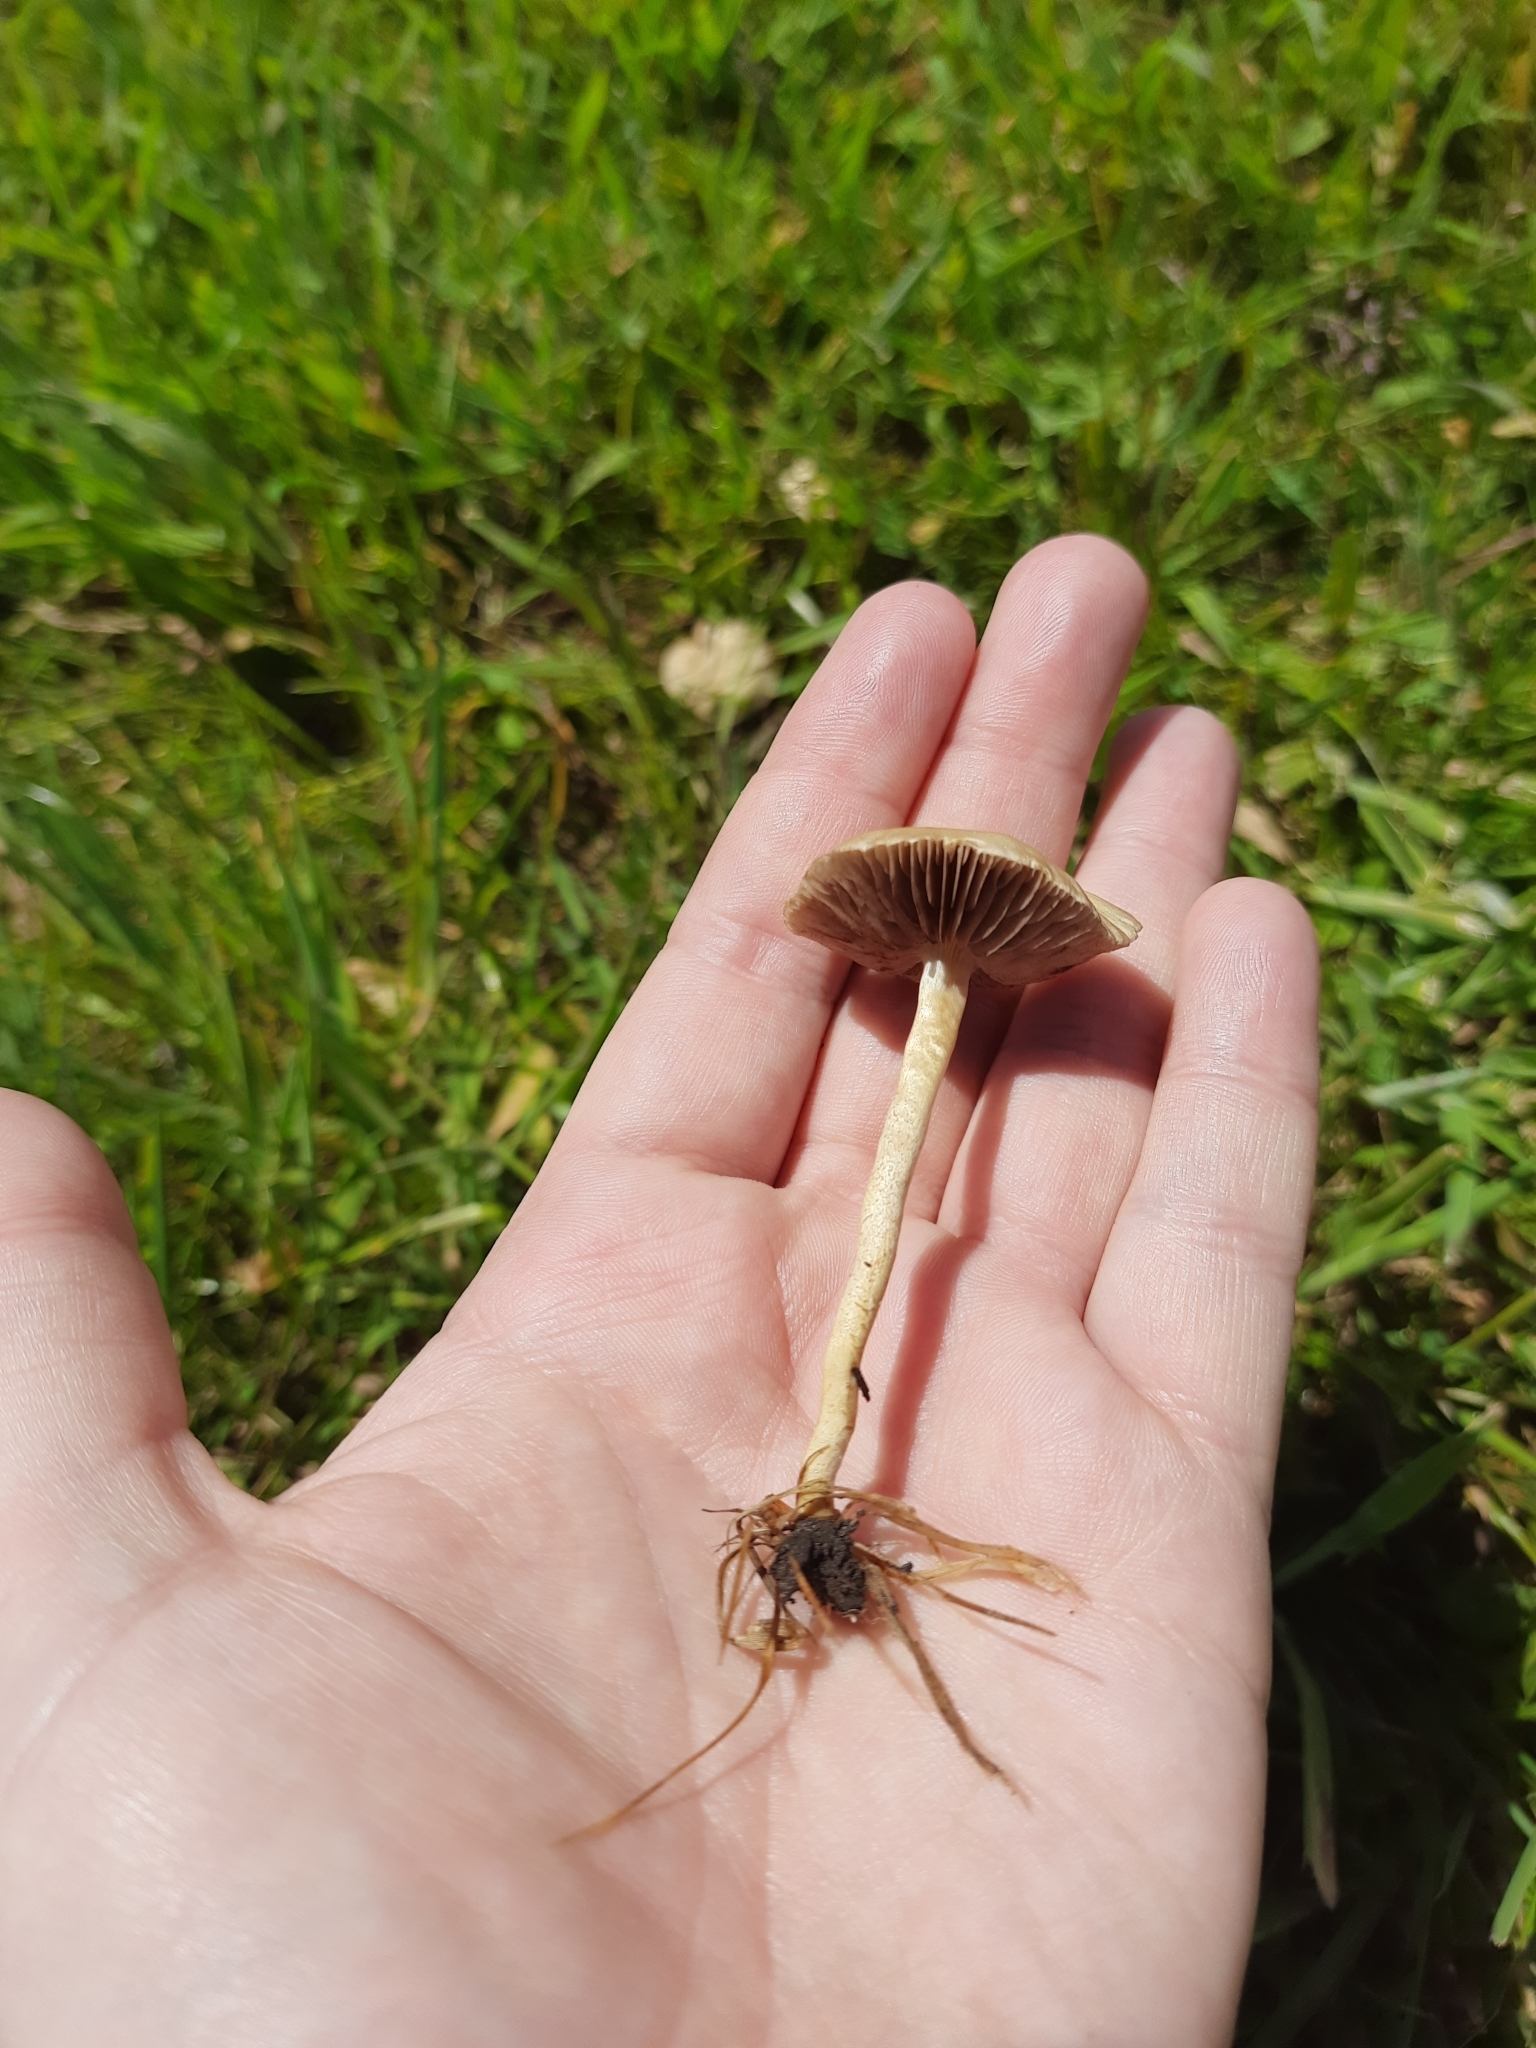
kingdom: Fungi
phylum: Basidiomycota
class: Agaricomycetes
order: Agaricales
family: Strophariaceae
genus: Agrocybe
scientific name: Agrocybe pediades
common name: Common fieldcap
